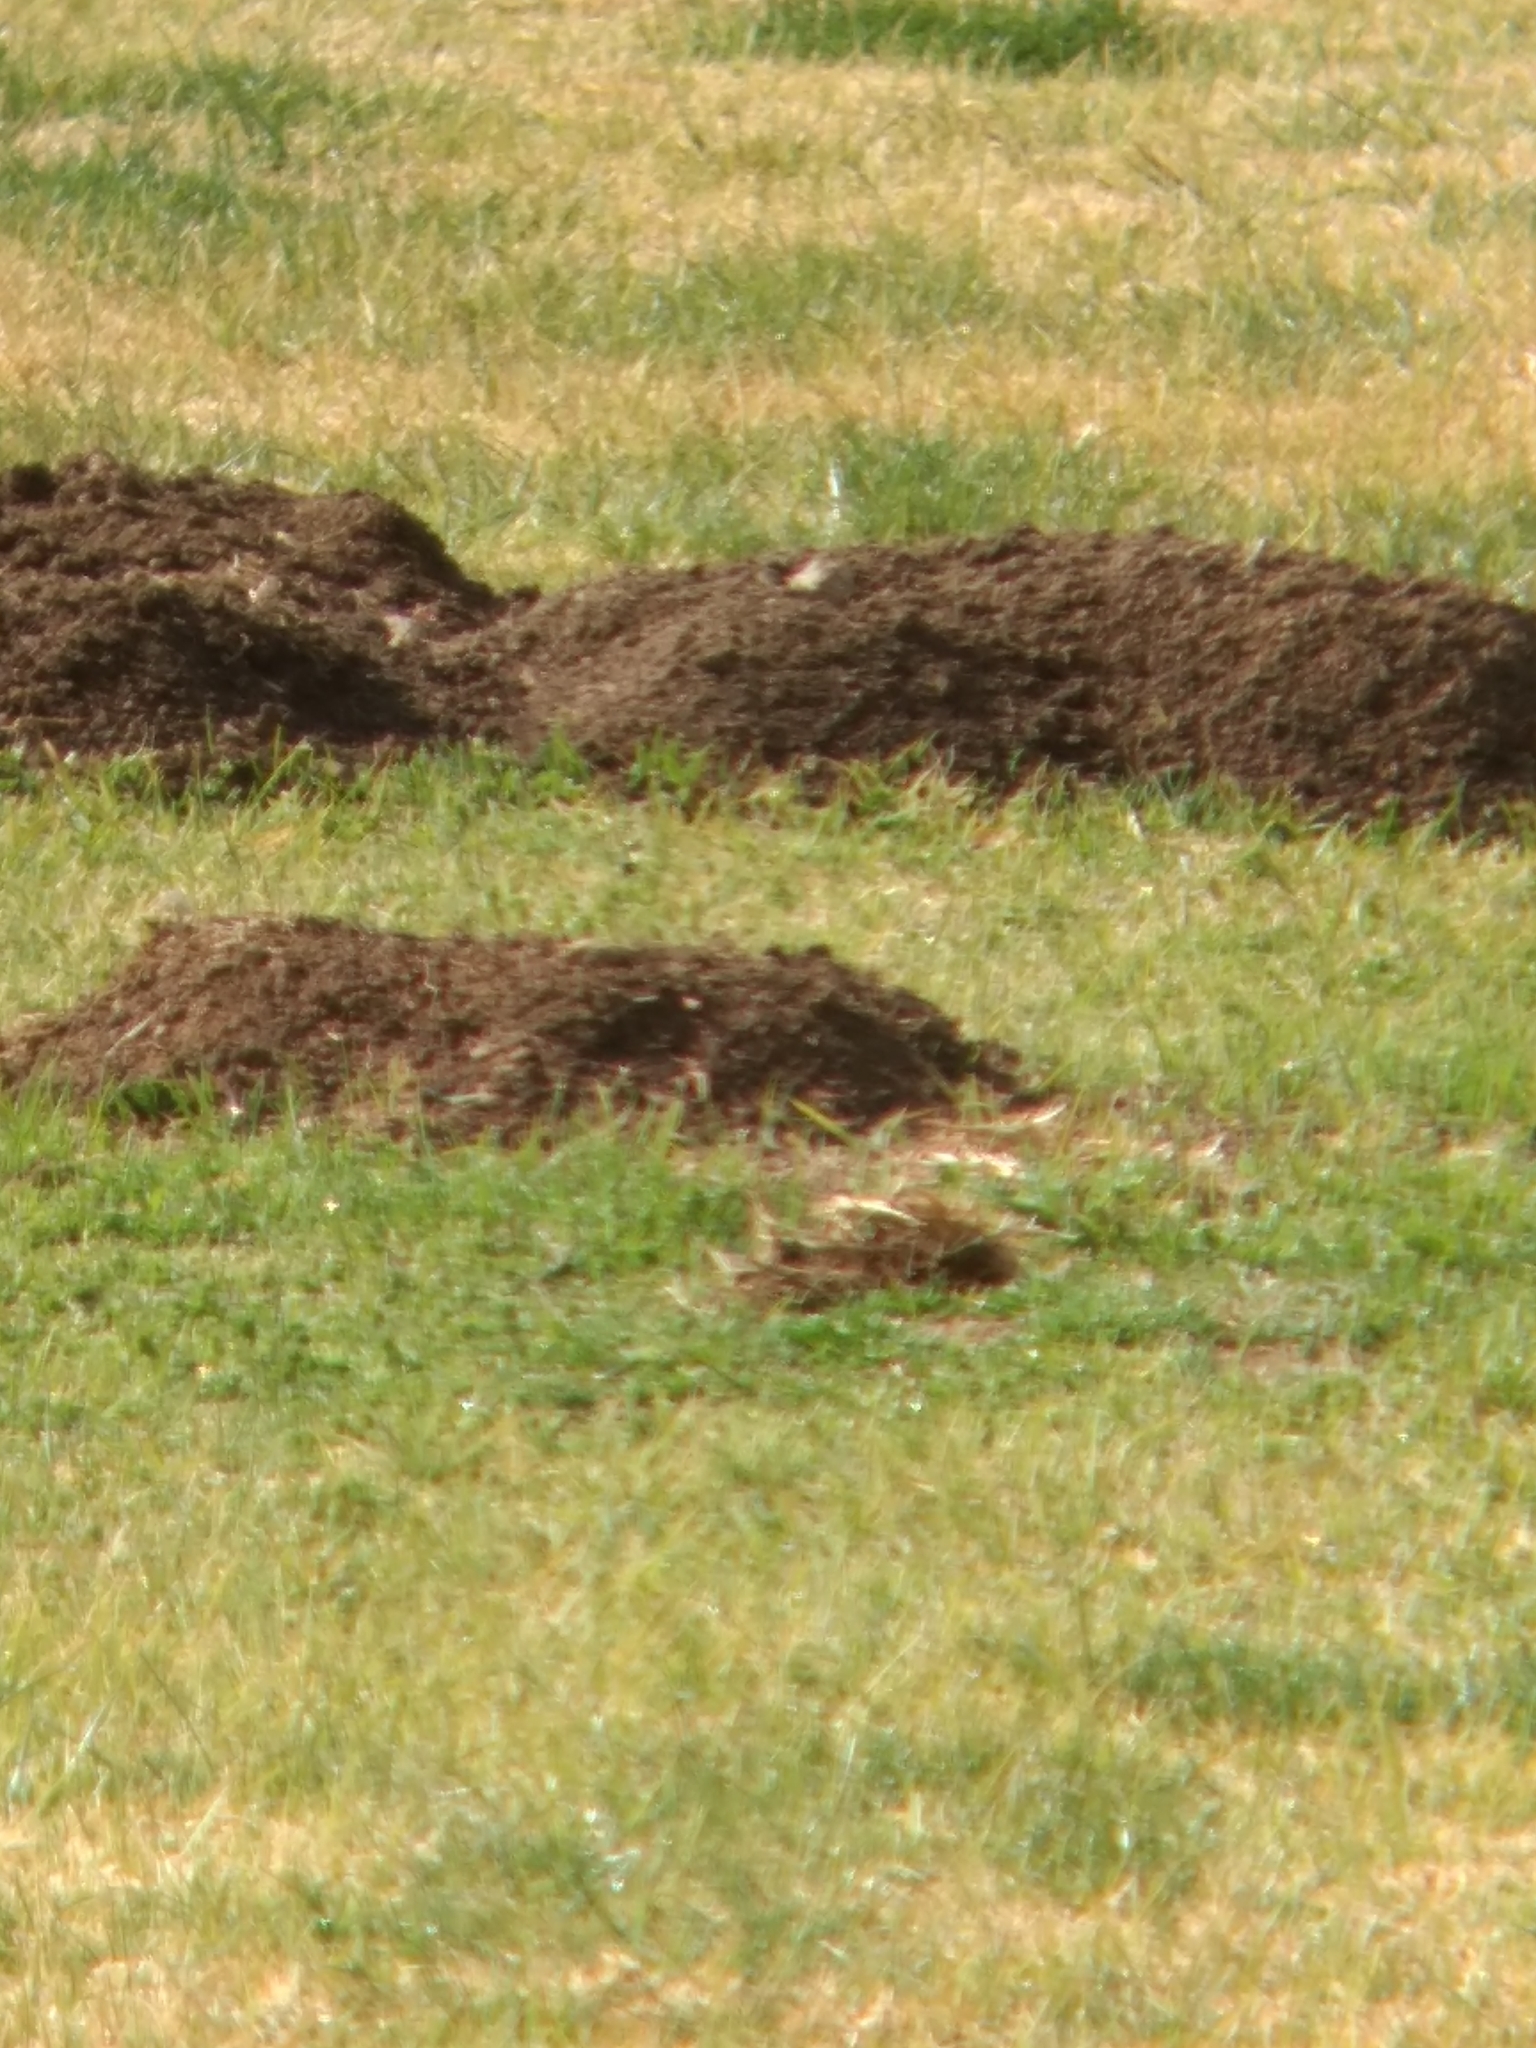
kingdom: Animalia
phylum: Chordata
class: Mammalia
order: Rodentia
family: Geomyidae
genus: Thomomys
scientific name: Thomomys bottae
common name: Botta's pocket gopher
